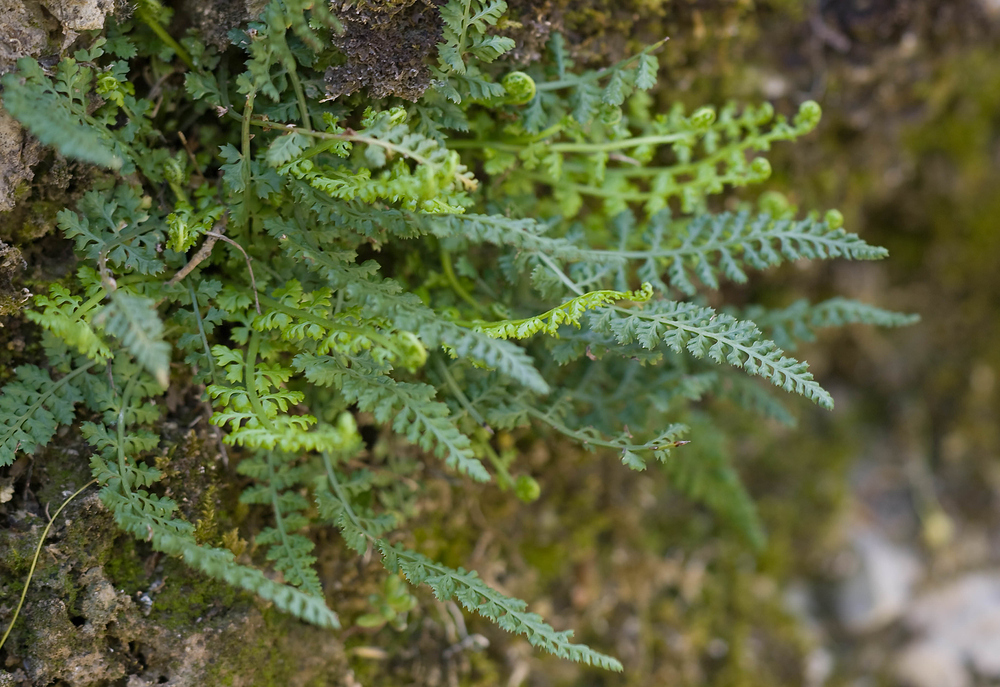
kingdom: Plantae
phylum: Tracheophyta
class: Polypodiopsida
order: Polypodiales
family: Aspleniaceae
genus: Asplenium
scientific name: Asplenium fontanum
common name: Fountain spleenwort
